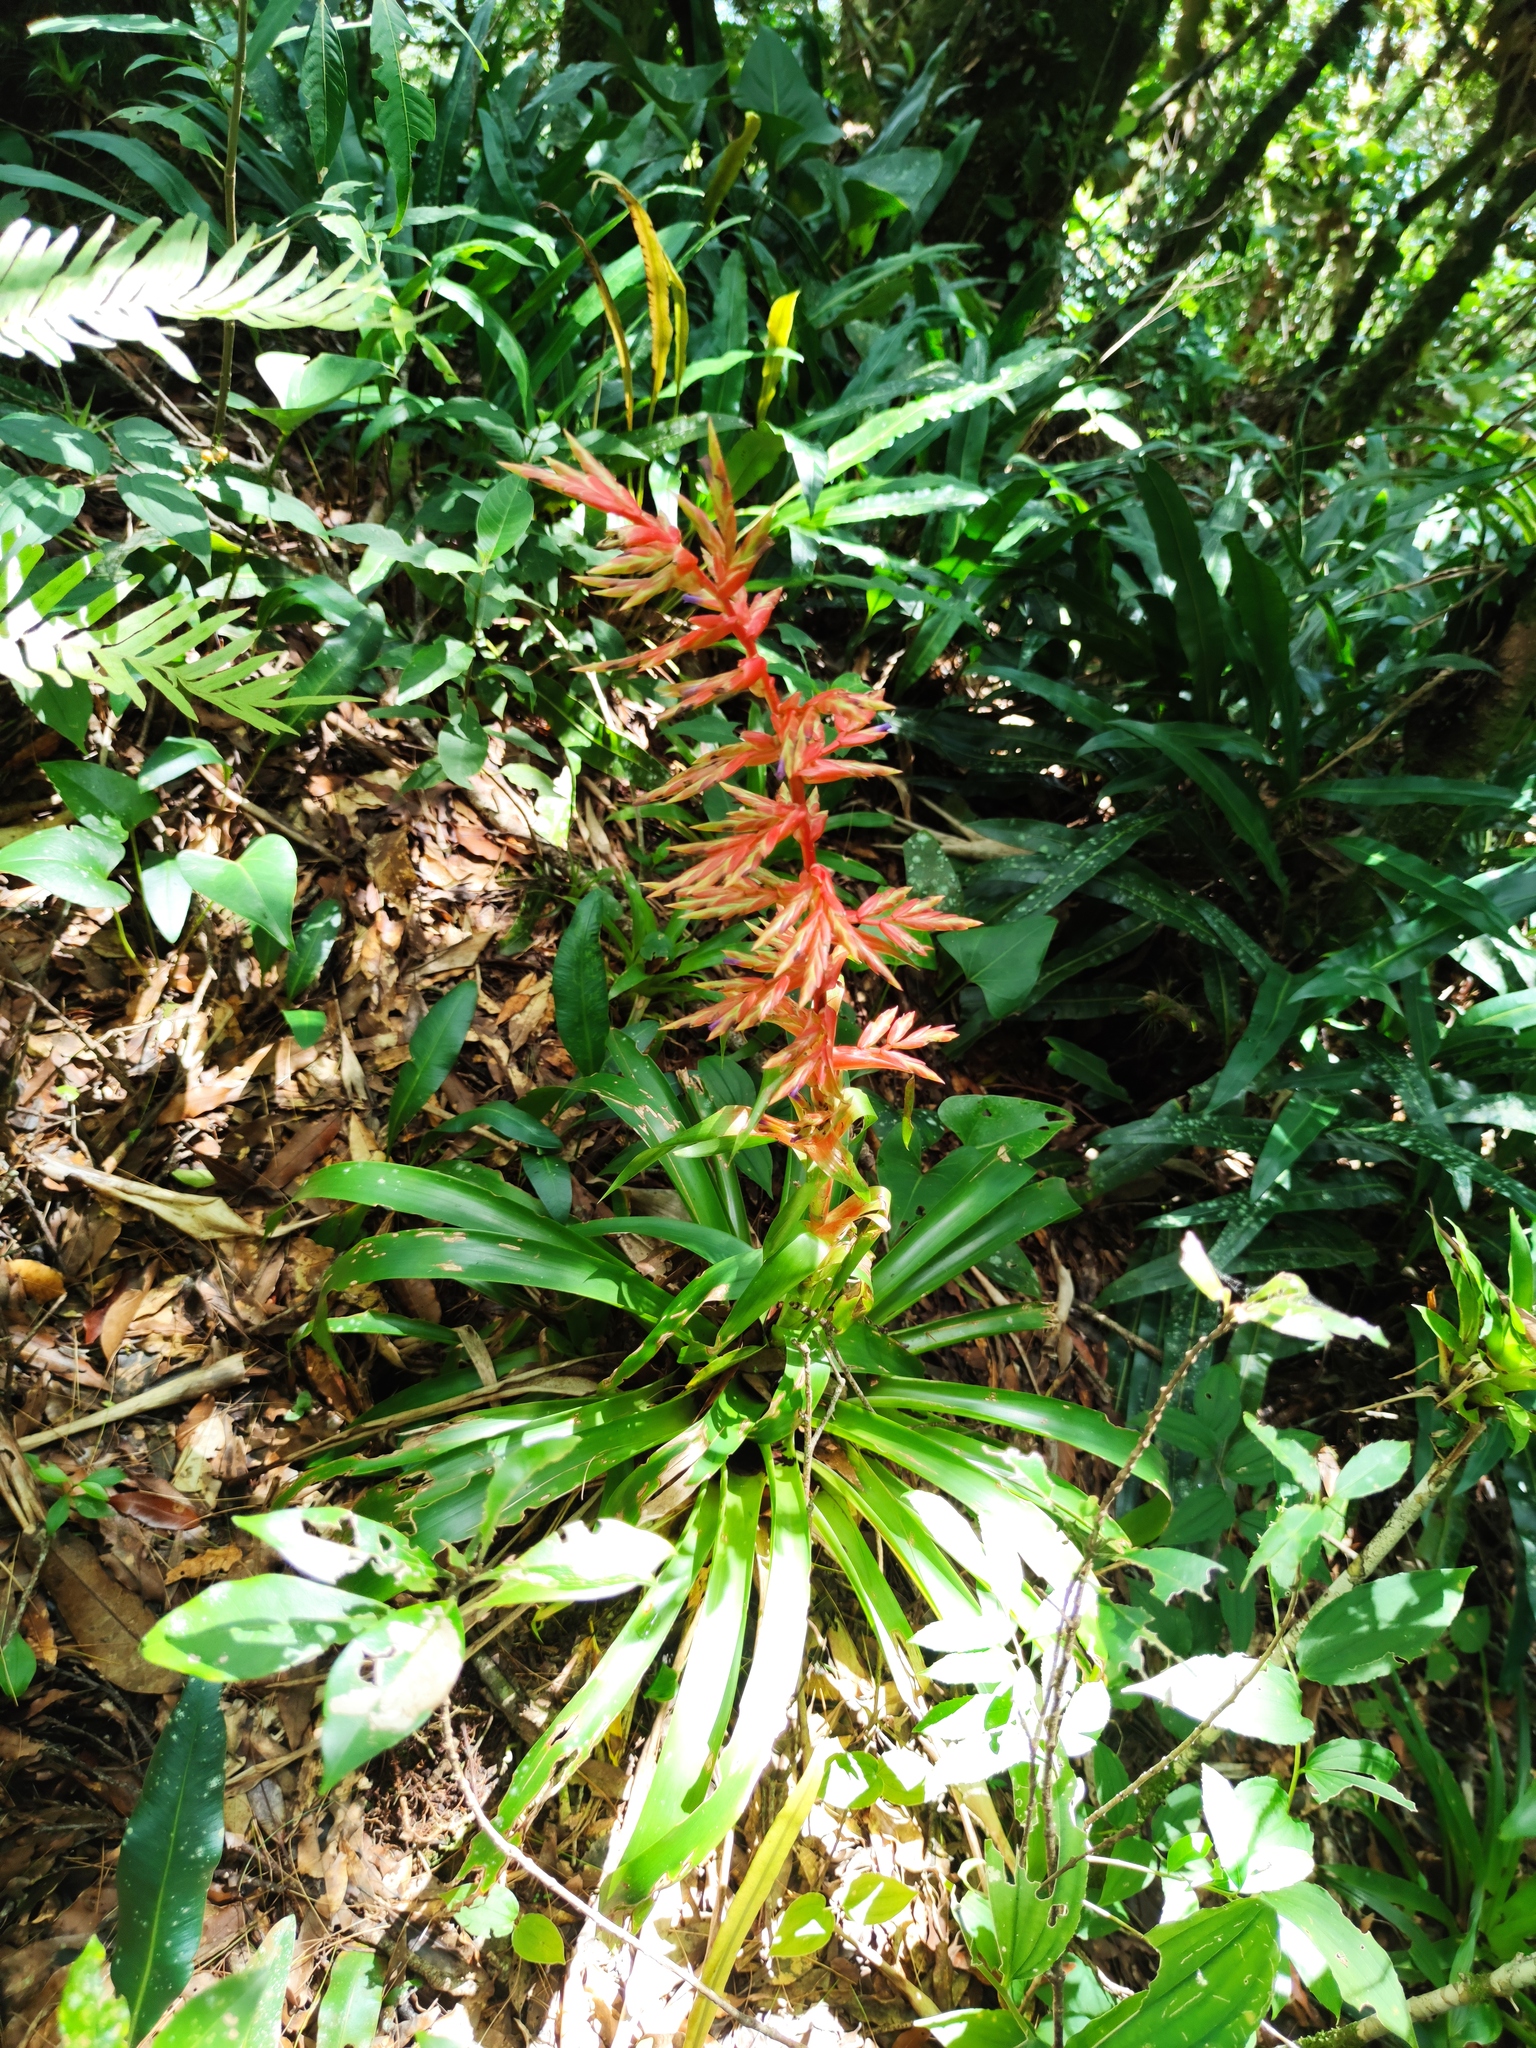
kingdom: Plantae
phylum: Tracheophyta
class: Liliopsida
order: Poales
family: Bromeliaceae
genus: Tillandsia
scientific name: Tillandsia guatemalensis
